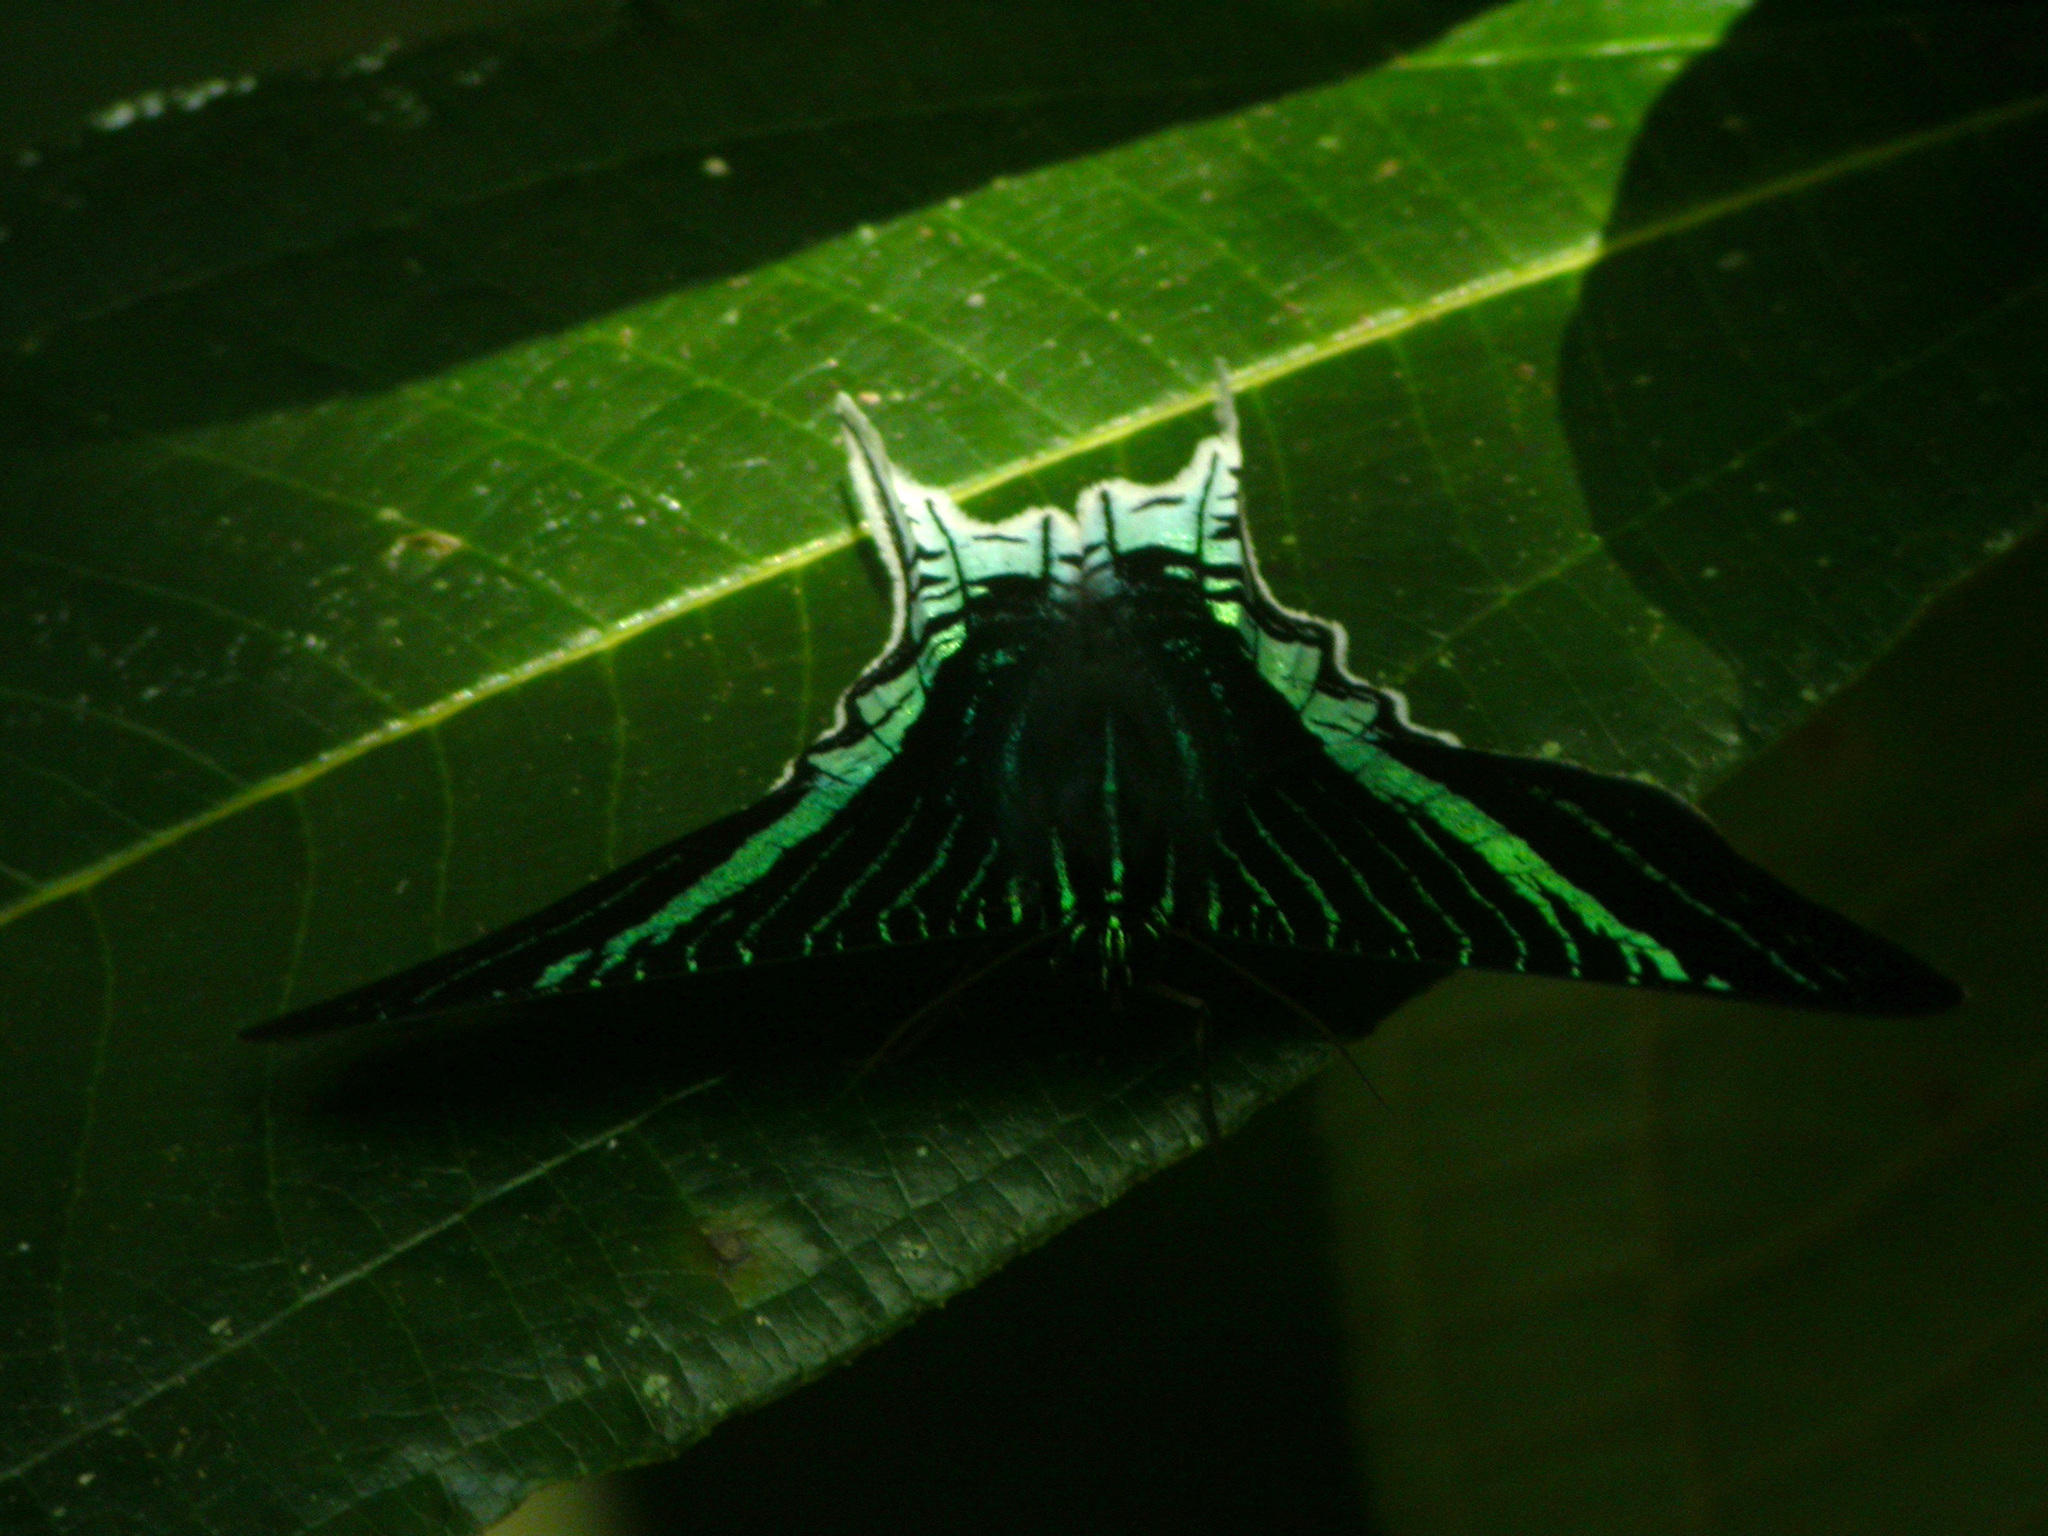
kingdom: Animalia
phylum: Arthropoda
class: Insecta
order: Lepidoptera
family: Uraniidae
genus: Urania
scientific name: Urania leilus
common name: Peacock moth
